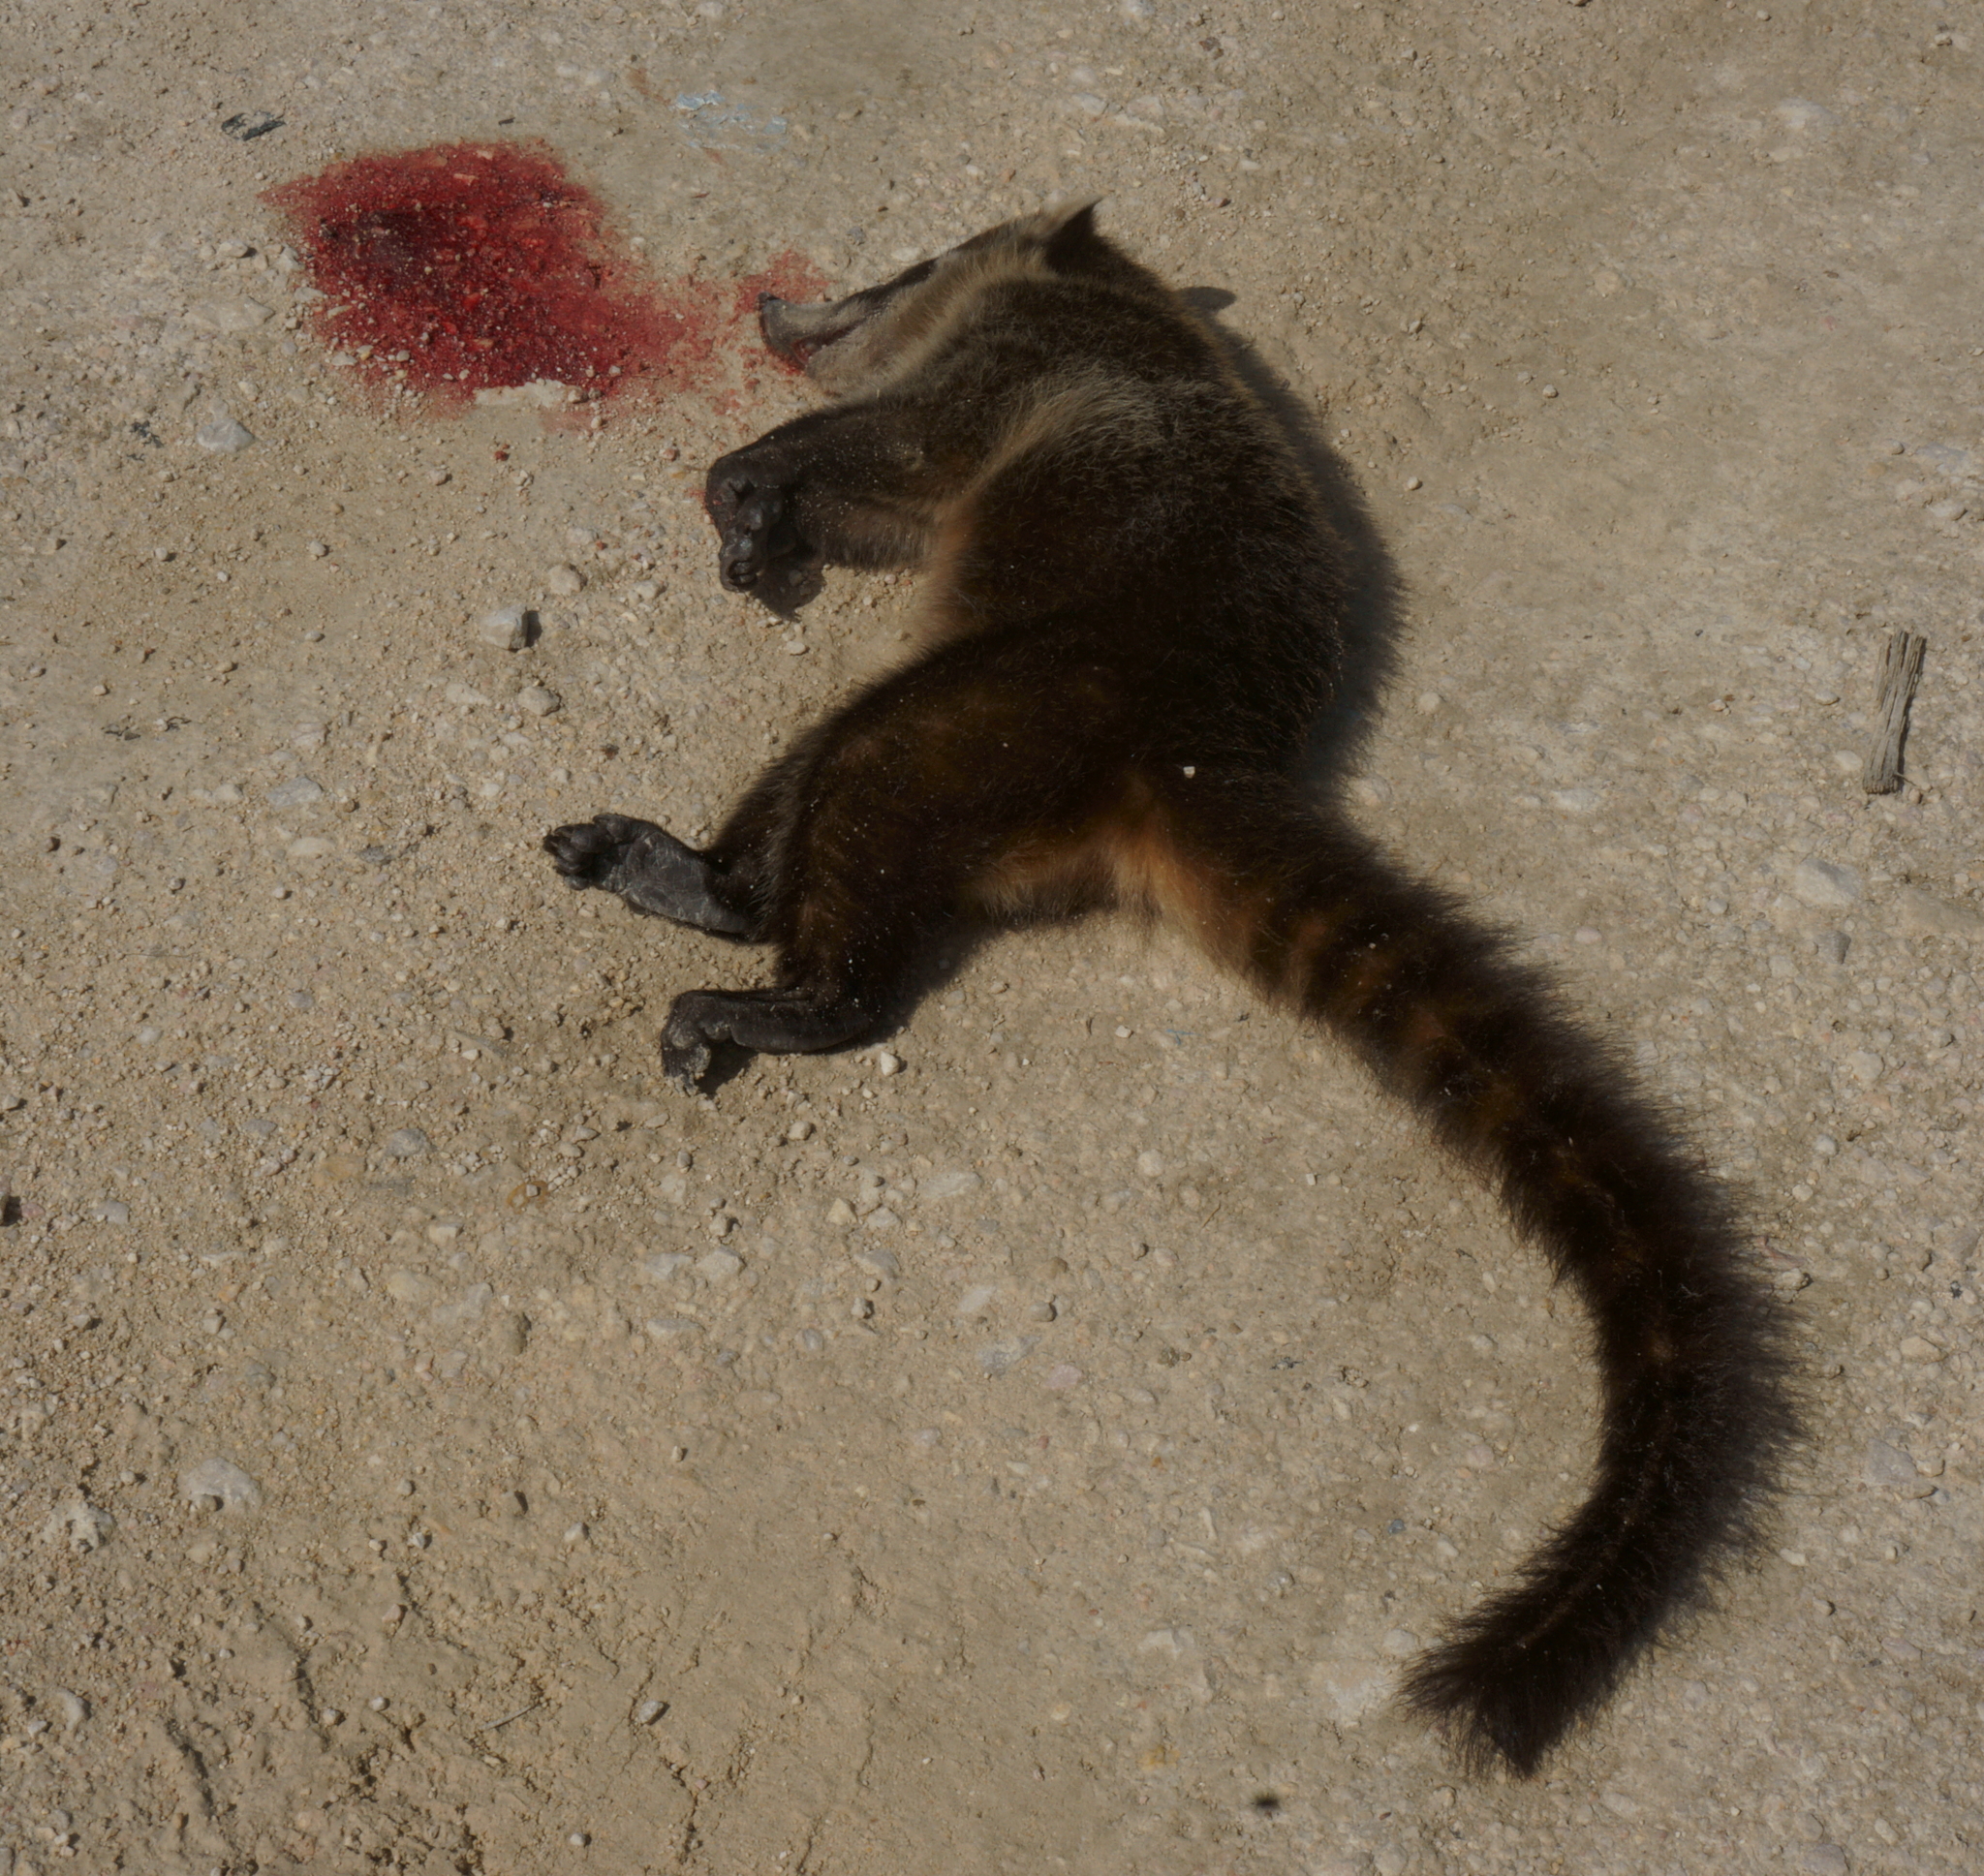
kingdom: Animalia
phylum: Chordata
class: Mammalia
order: Carnivora
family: Procyonidae
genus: Nasua
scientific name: Nasua narica
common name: White-nosed coati
